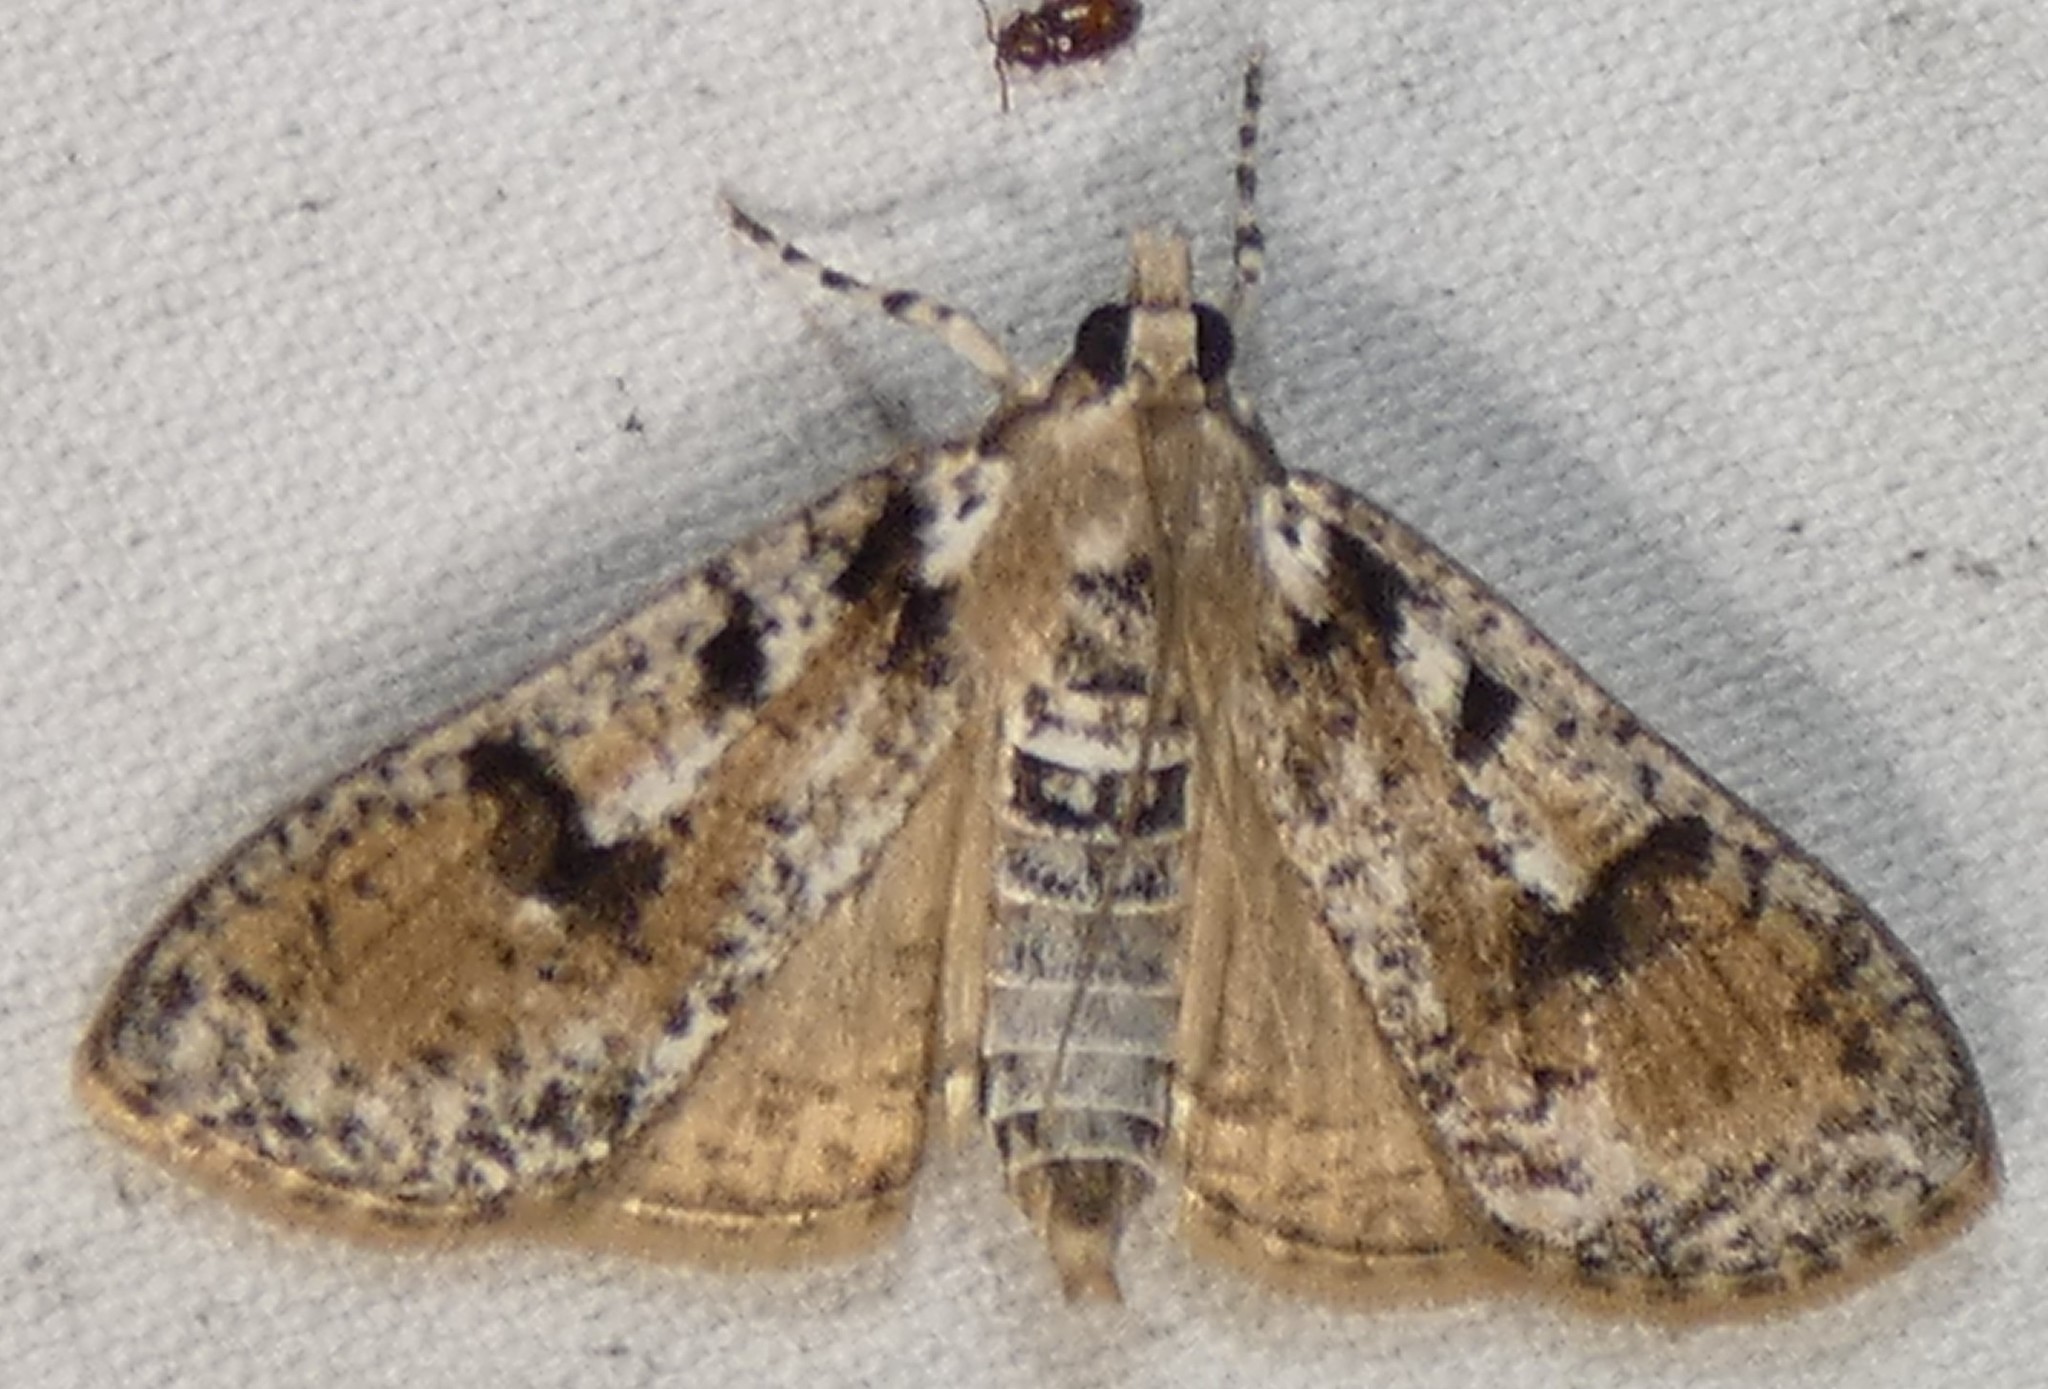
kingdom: Animalia
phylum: Arthropoda
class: Insecta
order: Lepidoptera
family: Crambidae
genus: Palpita
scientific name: Palpita magniferalis
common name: Splendid palpita moth
